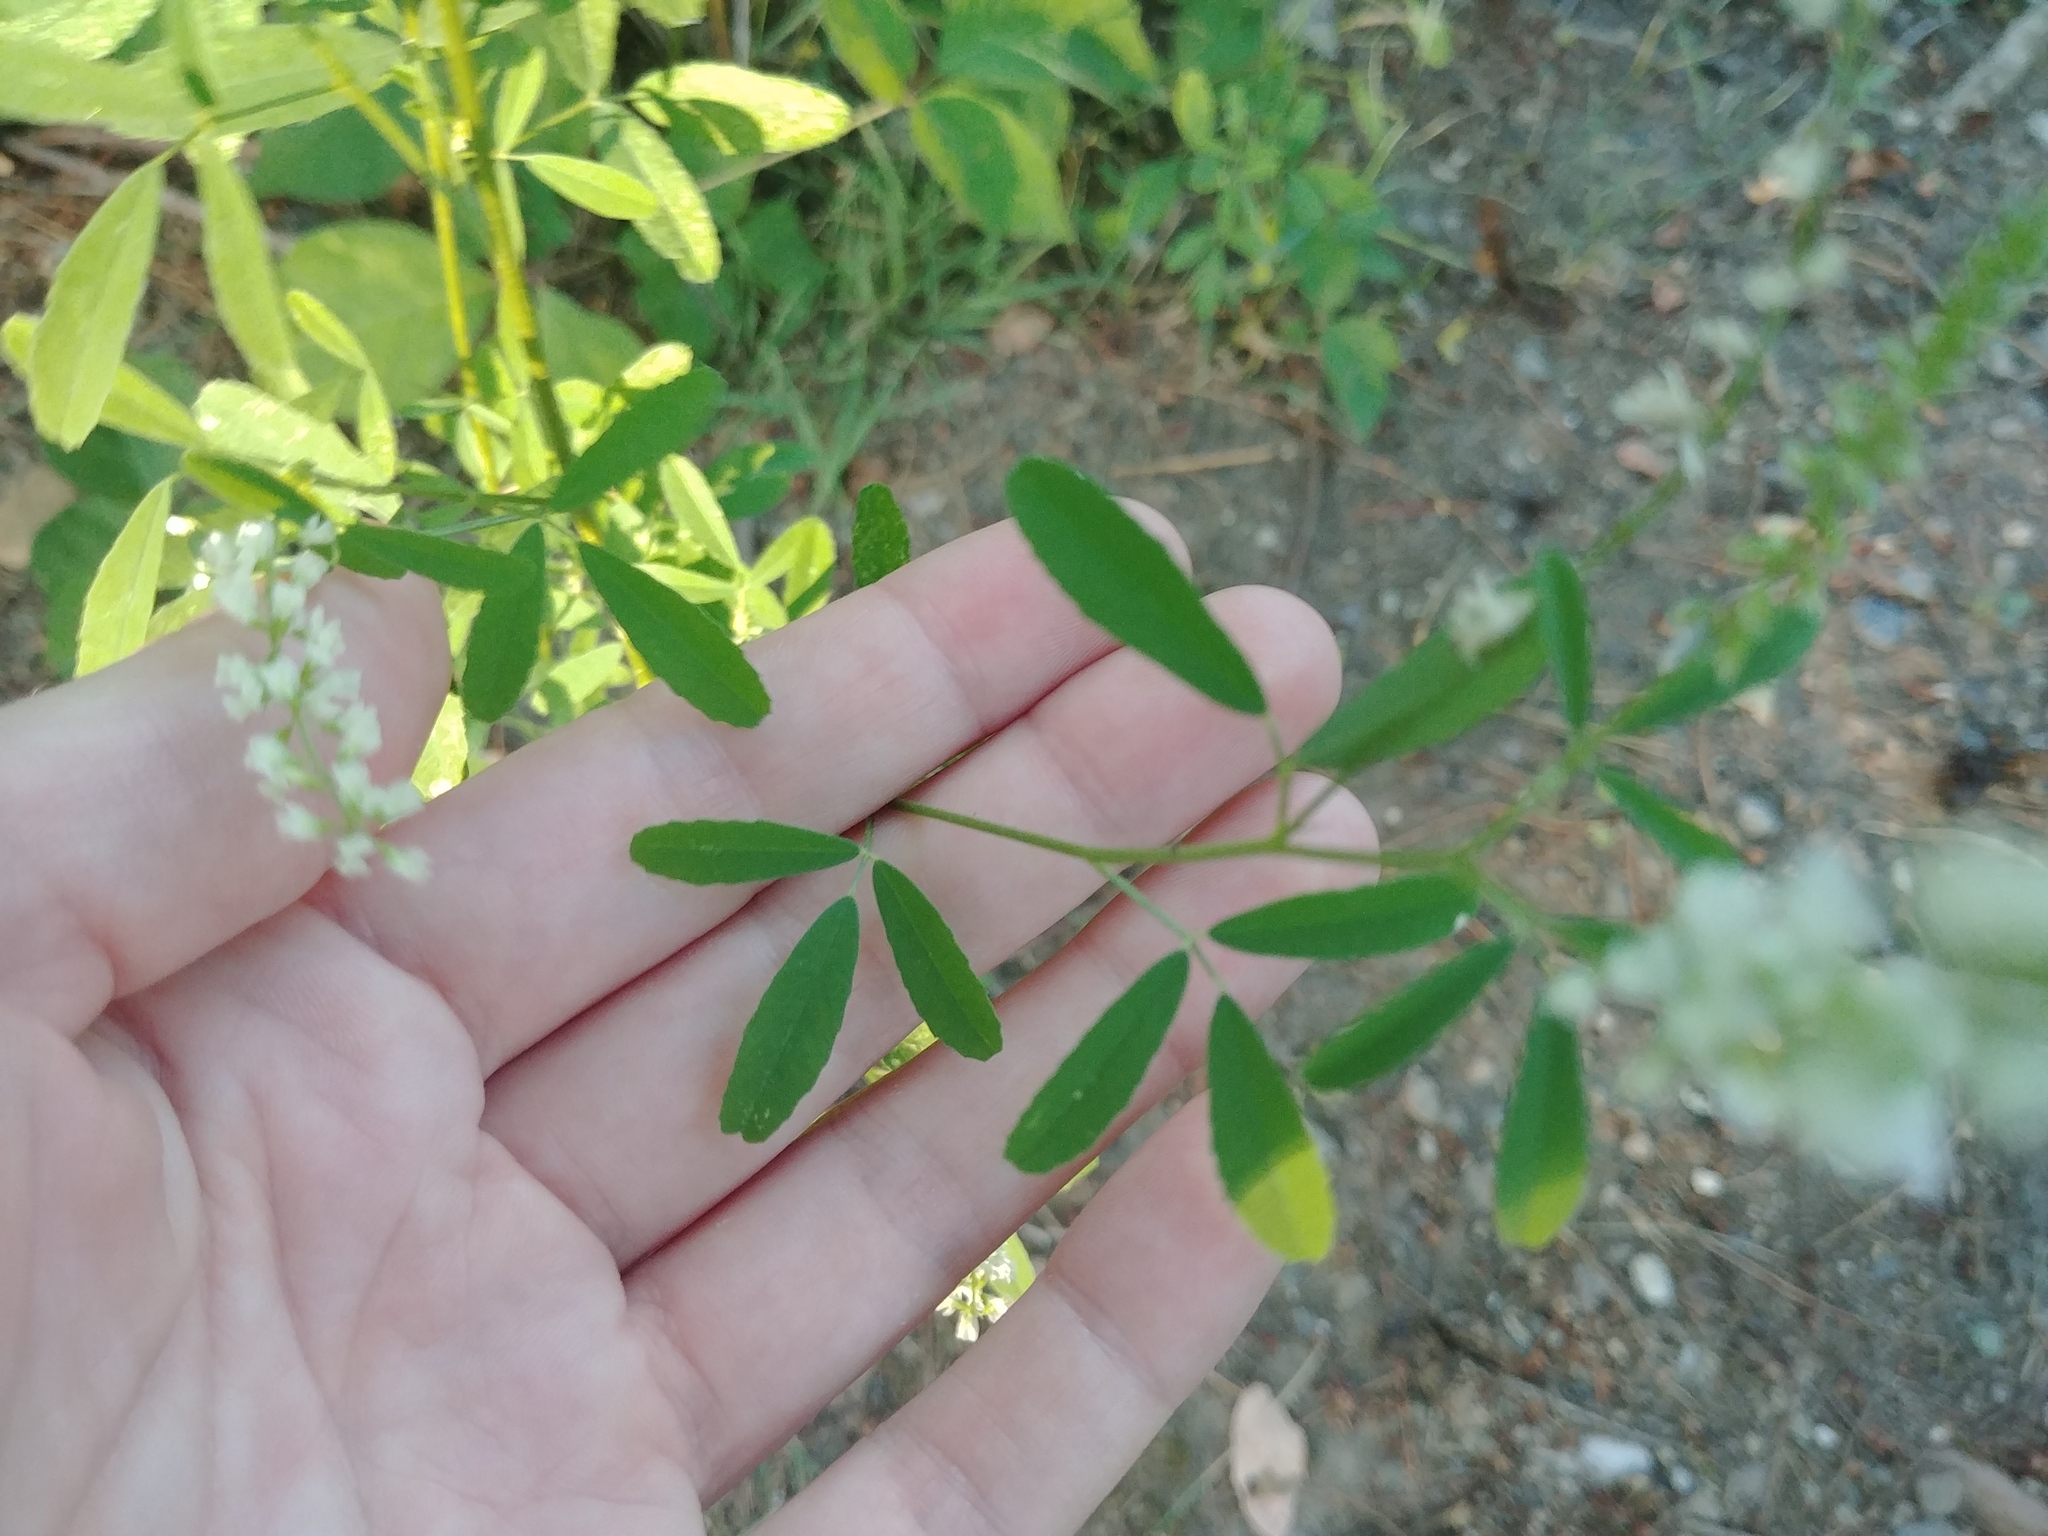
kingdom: Plantae
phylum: Tracheophyta
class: Magnoliopsida
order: Fabales
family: Fabaceae
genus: Melilotus
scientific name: Melilotus albus
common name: White melilot
